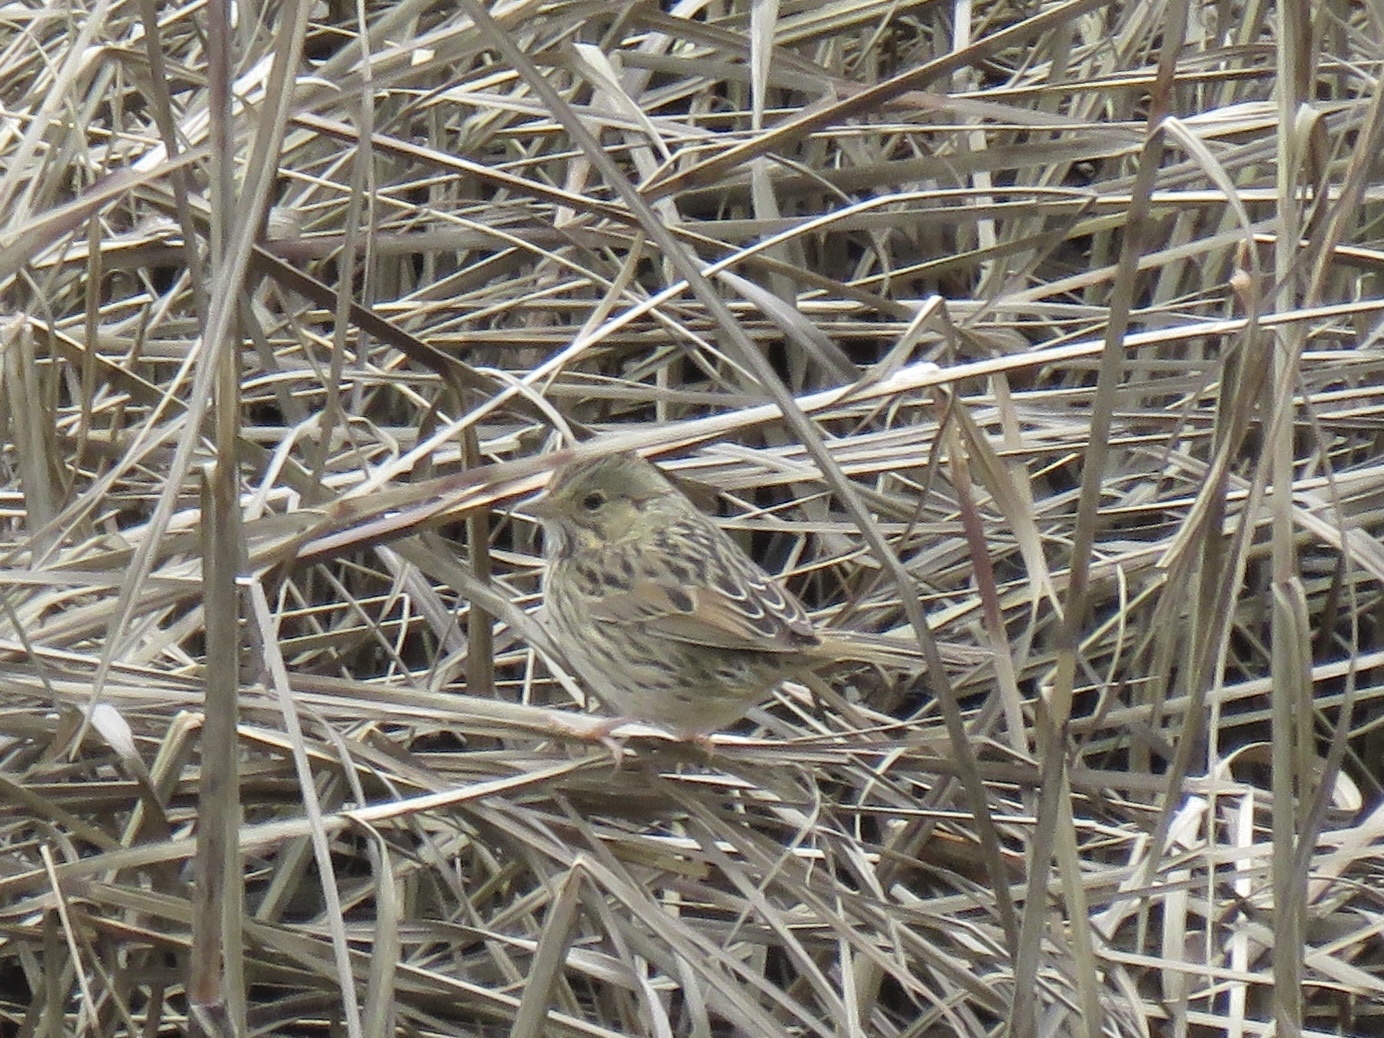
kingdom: Animalia
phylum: Chordata
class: Aves
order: Passeriformes
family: Passerellidae
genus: Melospiza
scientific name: Melospiza lincolnii
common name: Lincoln's sparrow
